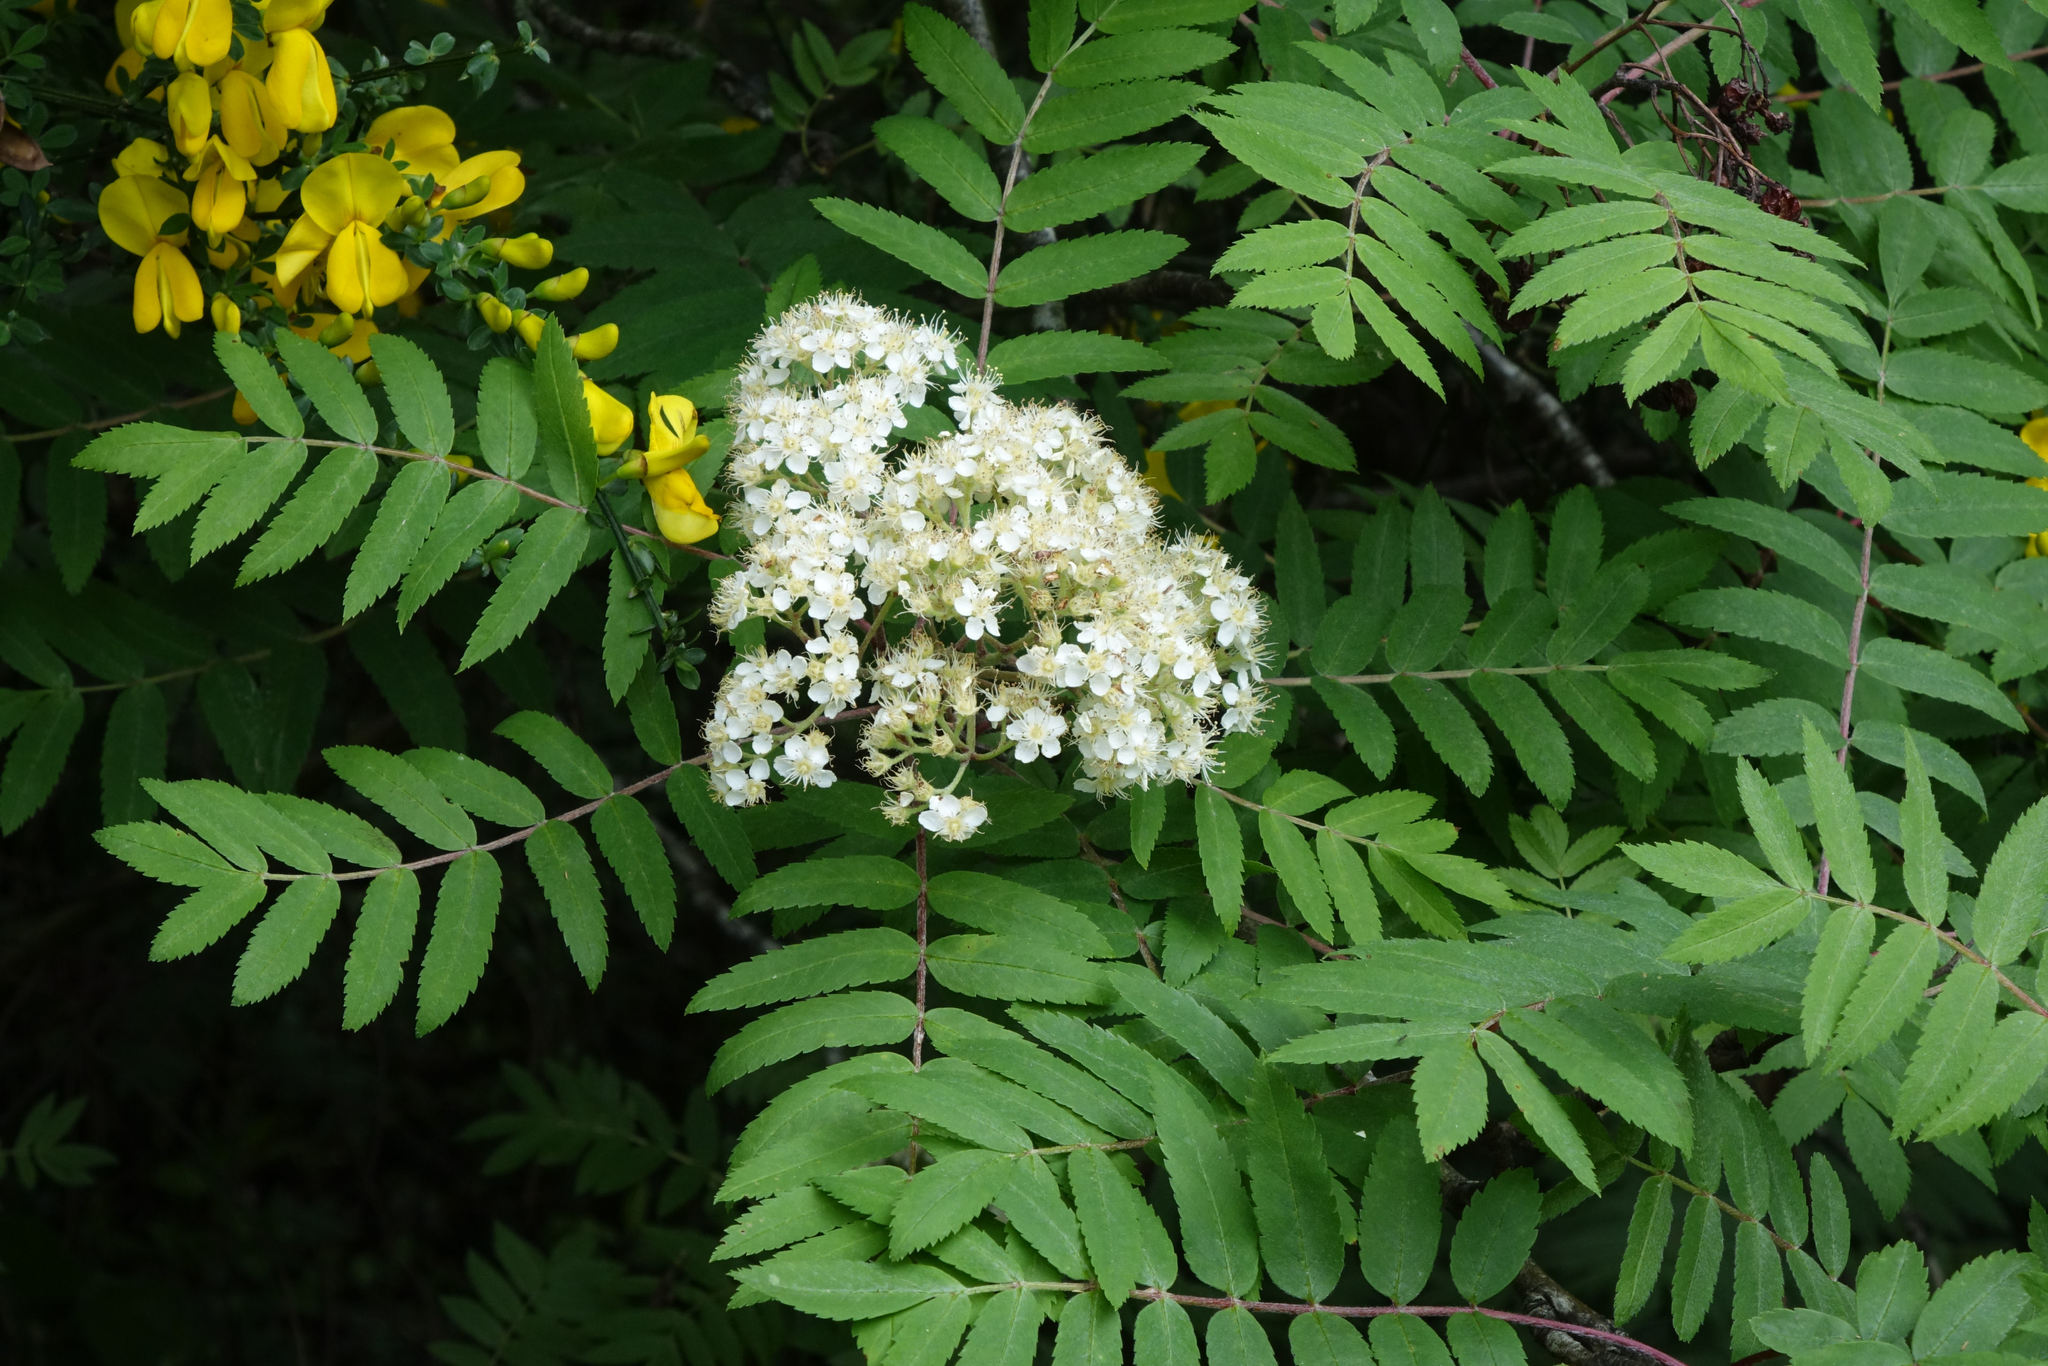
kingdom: Plantae
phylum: Tracheophyta
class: Magnoliopsida
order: Rosales
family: Rosaceae
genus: Sorbus
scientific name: Sorbus aucuparia
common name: Rowan
